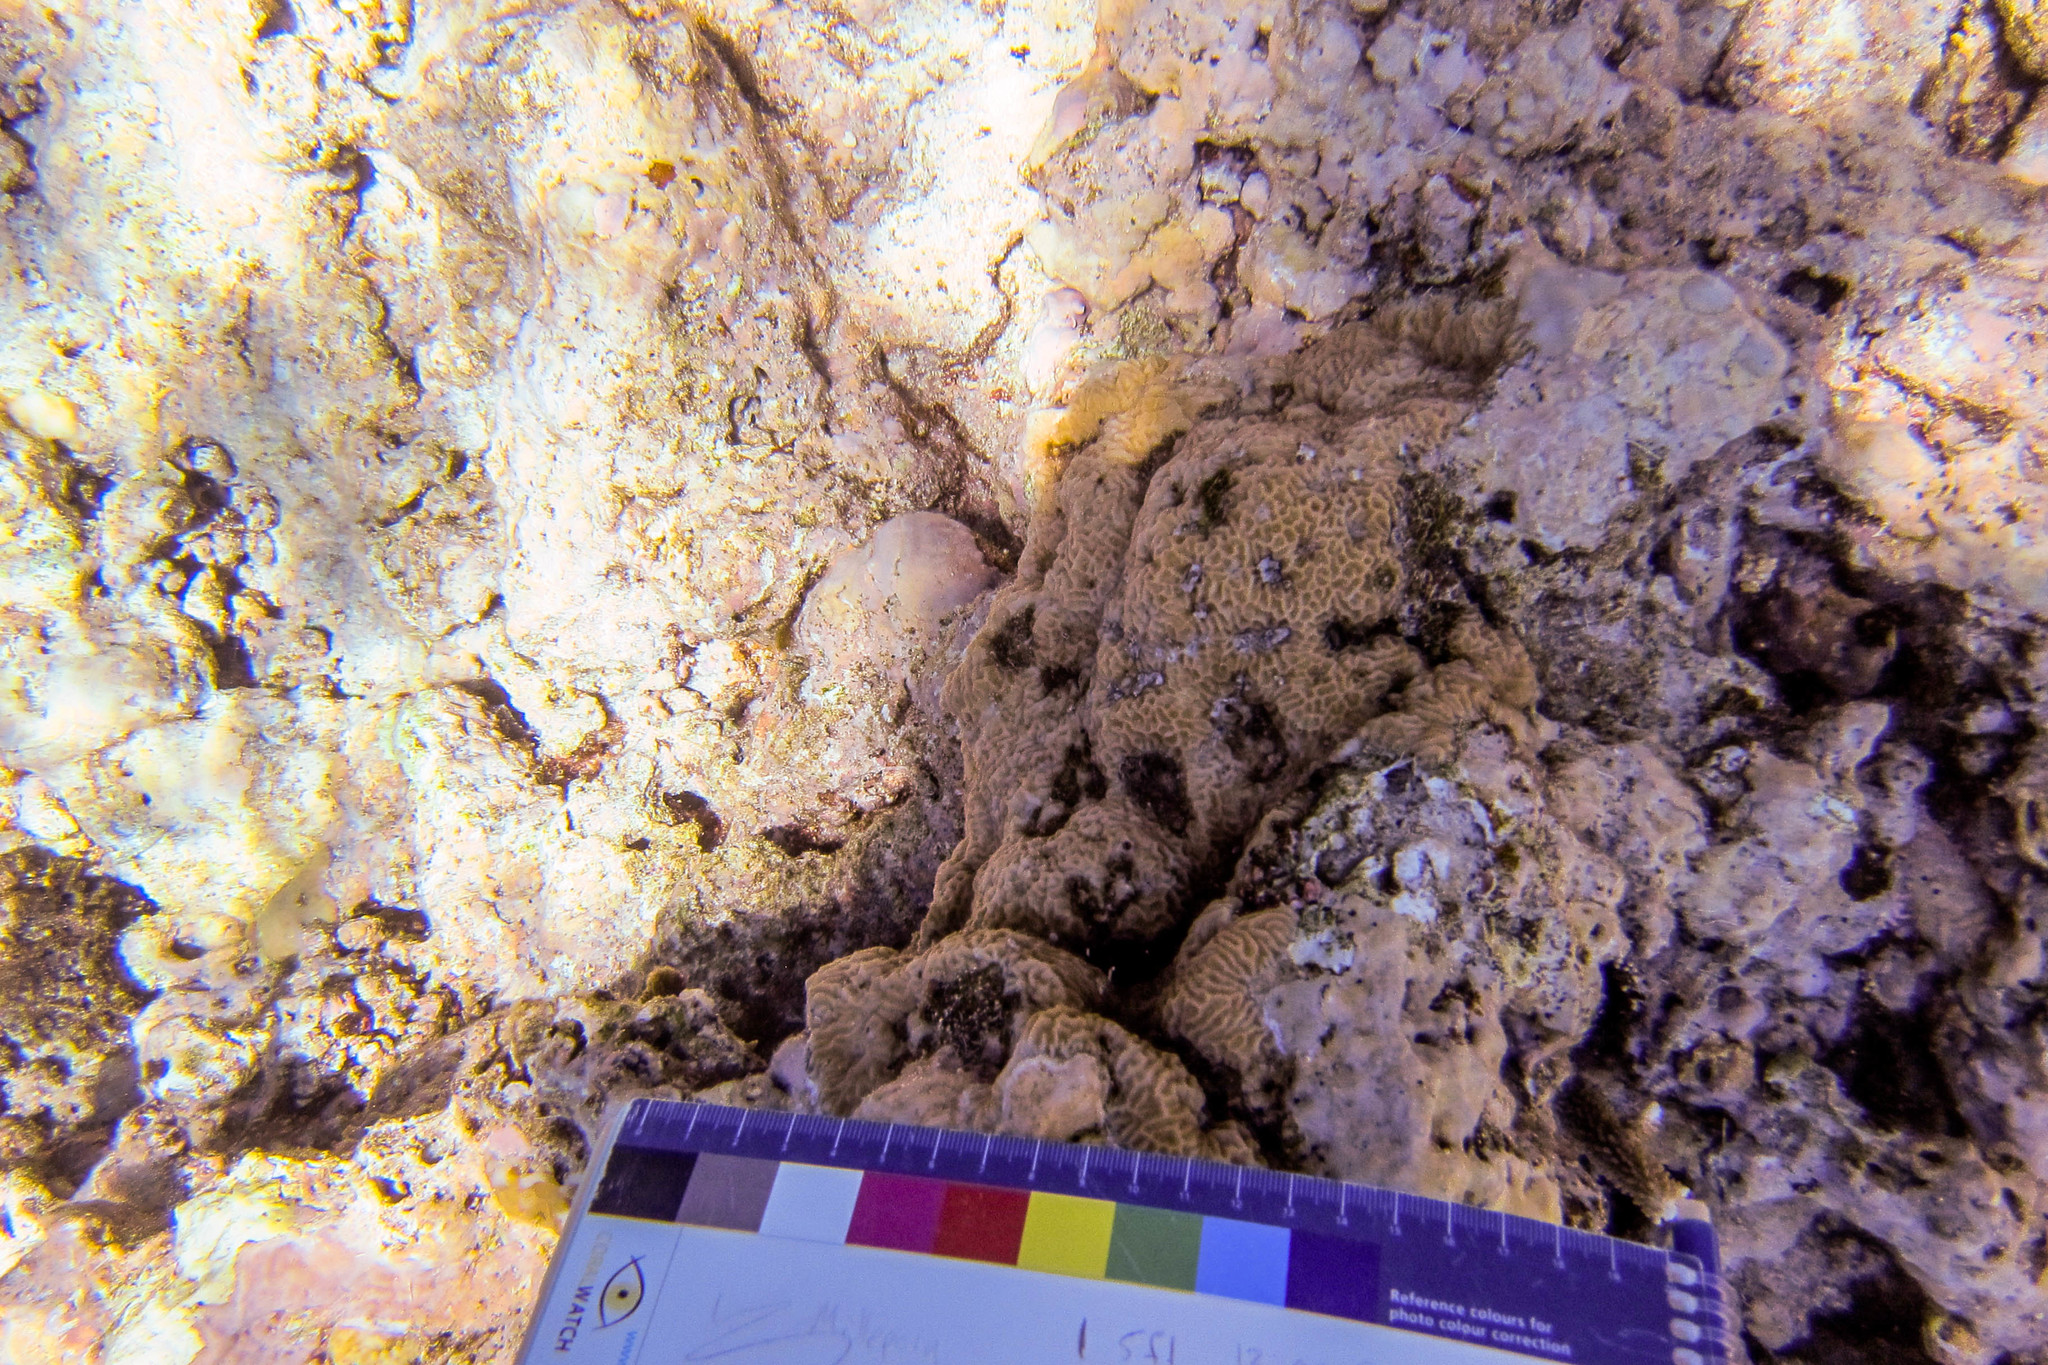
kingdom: Animalia
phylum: Cnidaria
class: Anthozoa
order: Scleractinia
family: Agariciidae
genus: Pavona
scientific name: Pavona venosa
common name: Leaf coral
